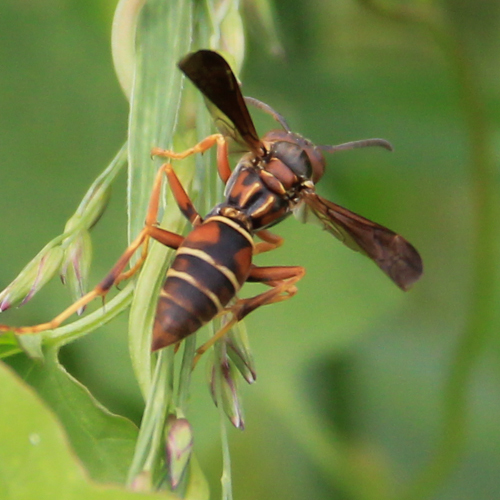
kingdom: Animalia
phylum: Arthropoda
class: Insecta
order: Hymenoptera
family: Eumenidae
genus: Polistes
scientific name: Polistes fuscatus
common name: Dark paper wasp
